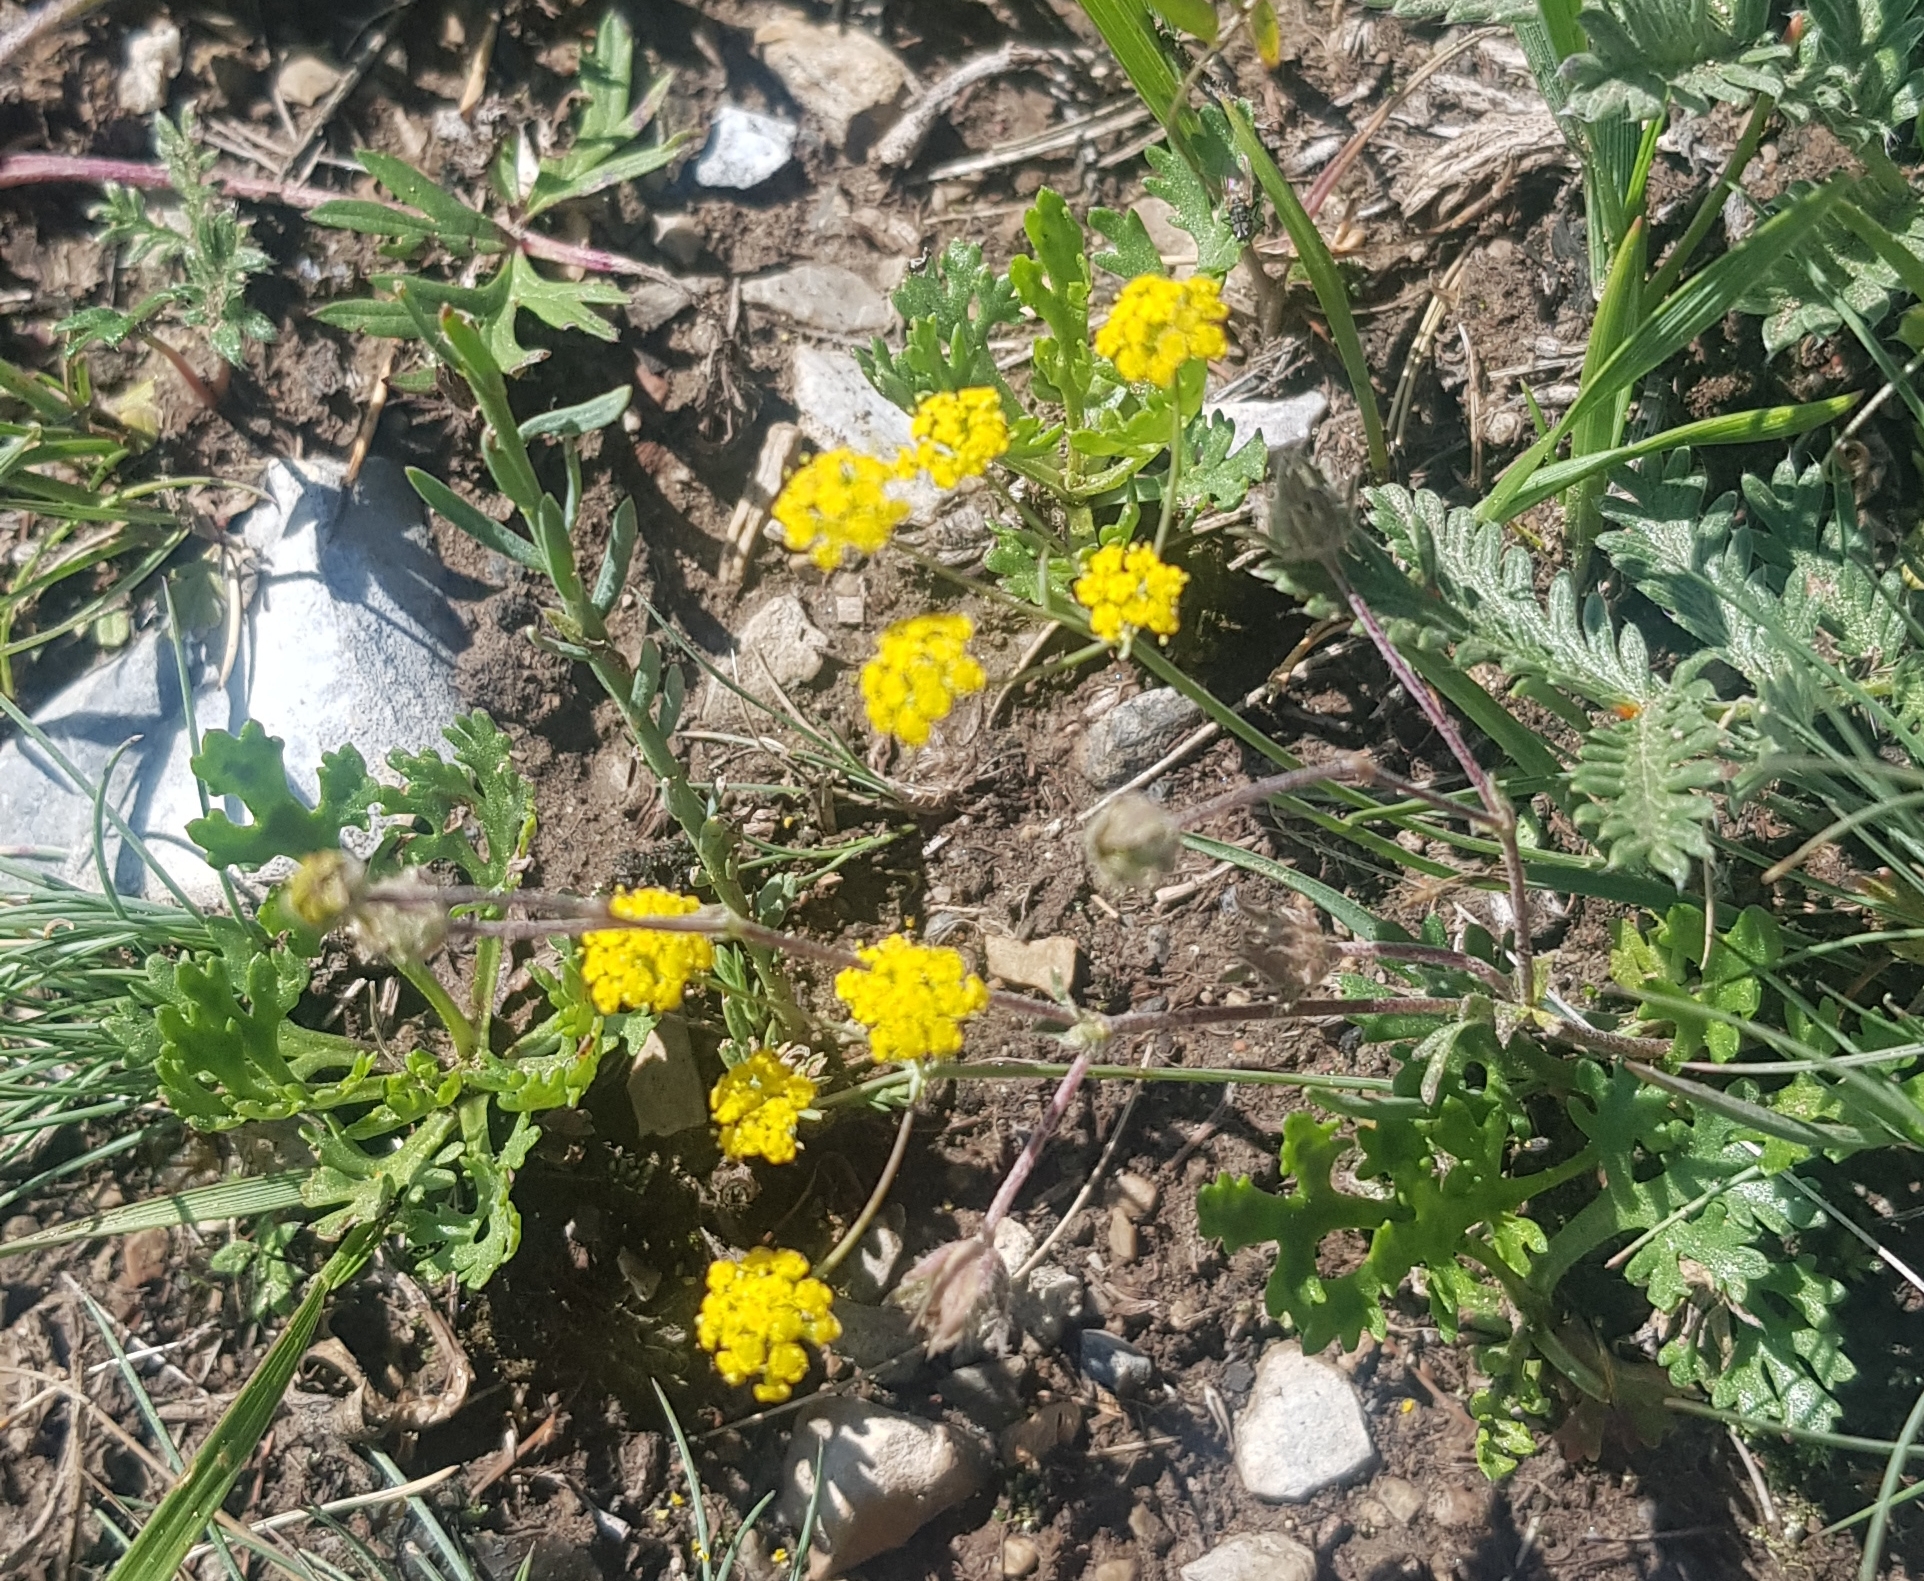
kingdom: Plantae
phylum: Tracheophyta
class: Magnoliopsida
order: Apiales
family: Apiaceae
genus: Bupleurum
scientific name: Bupleurum bicaule
